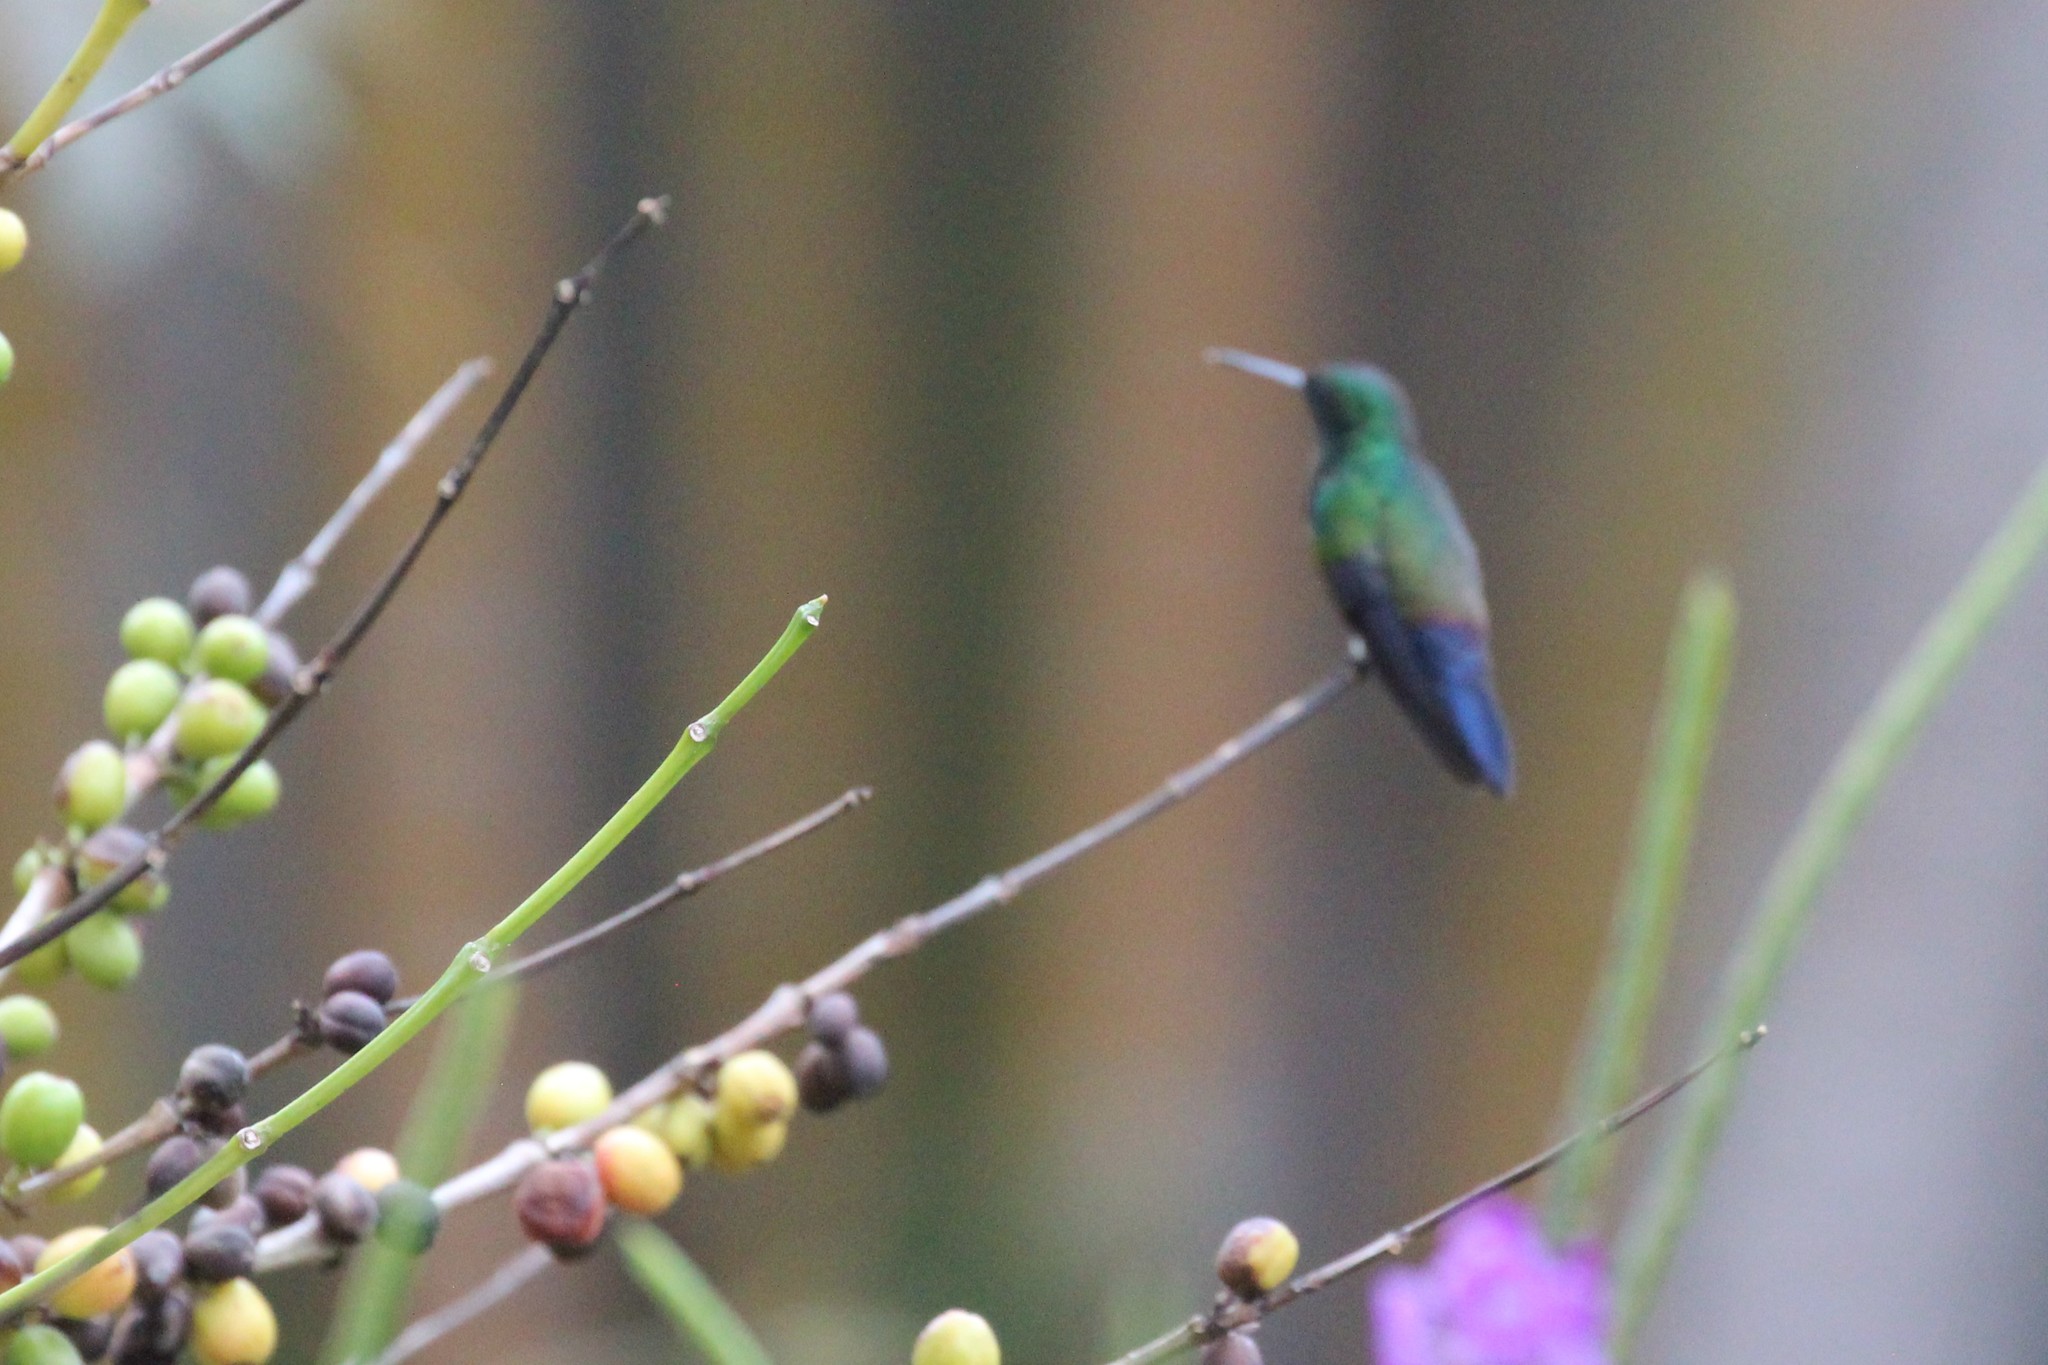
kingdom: Animalia
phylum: Chordata
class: Aves
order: Apodiformes
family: Trochilidae
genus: Saucerottia
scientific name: Saucerottia hoffmanni
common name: Blue-vented hummingbird
